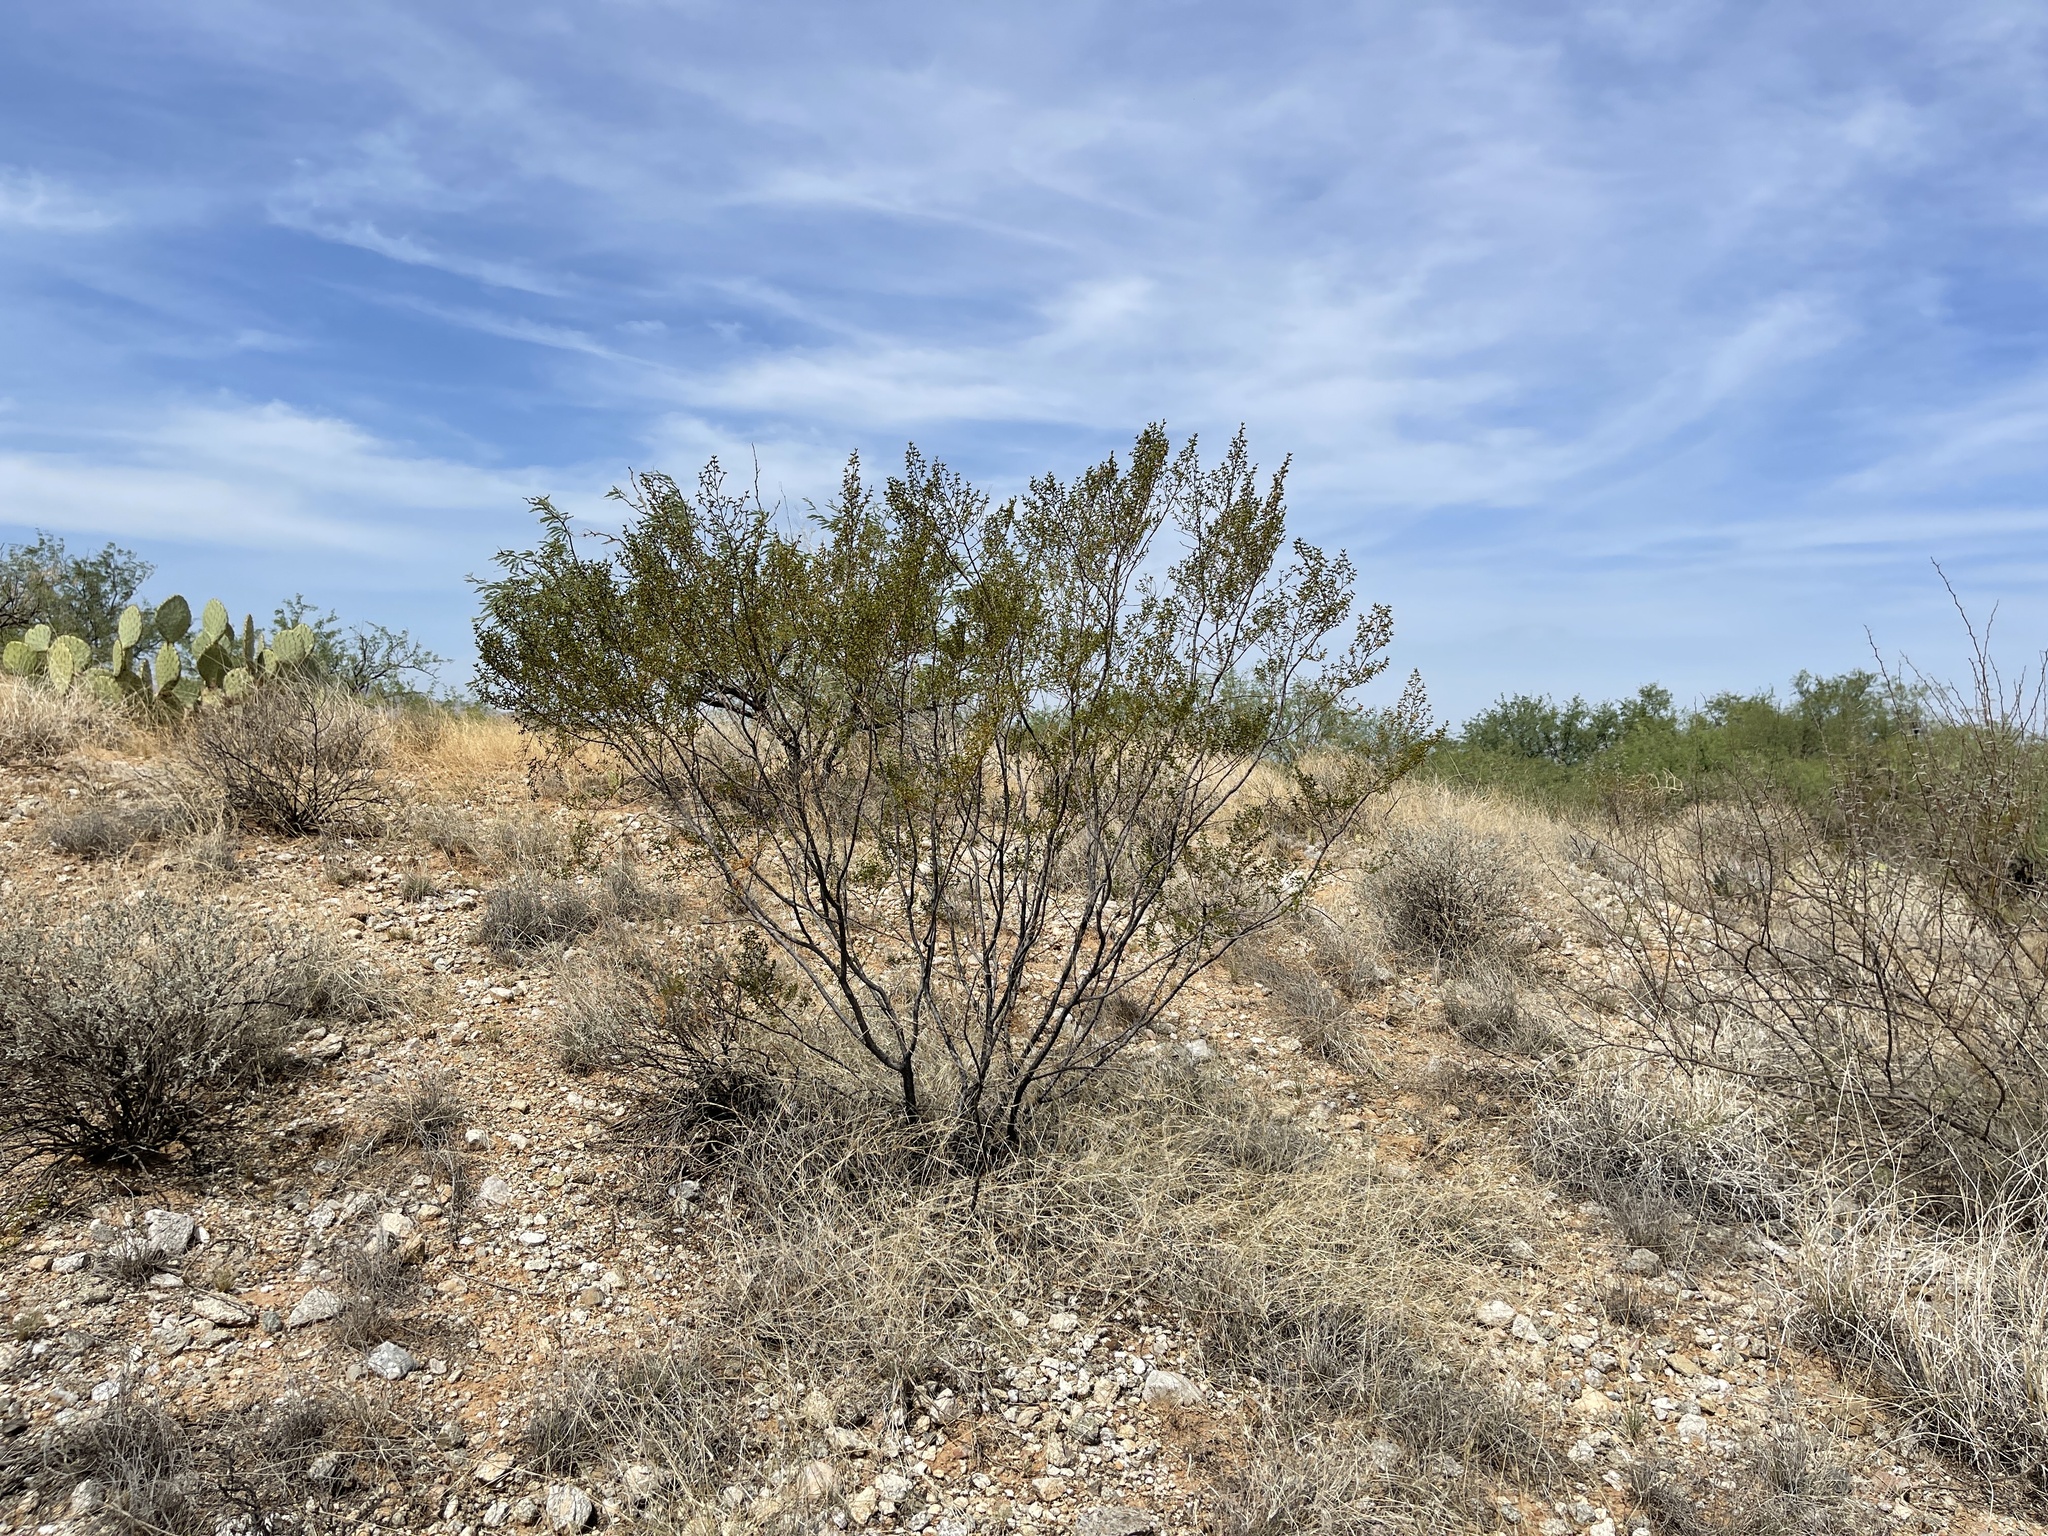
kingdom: Plantae
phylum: Tracheophyta
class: Magnoliopsida
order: Zygophyllales
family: Zygophyllaceae
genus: Larrea
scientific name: Larrea tridentata
